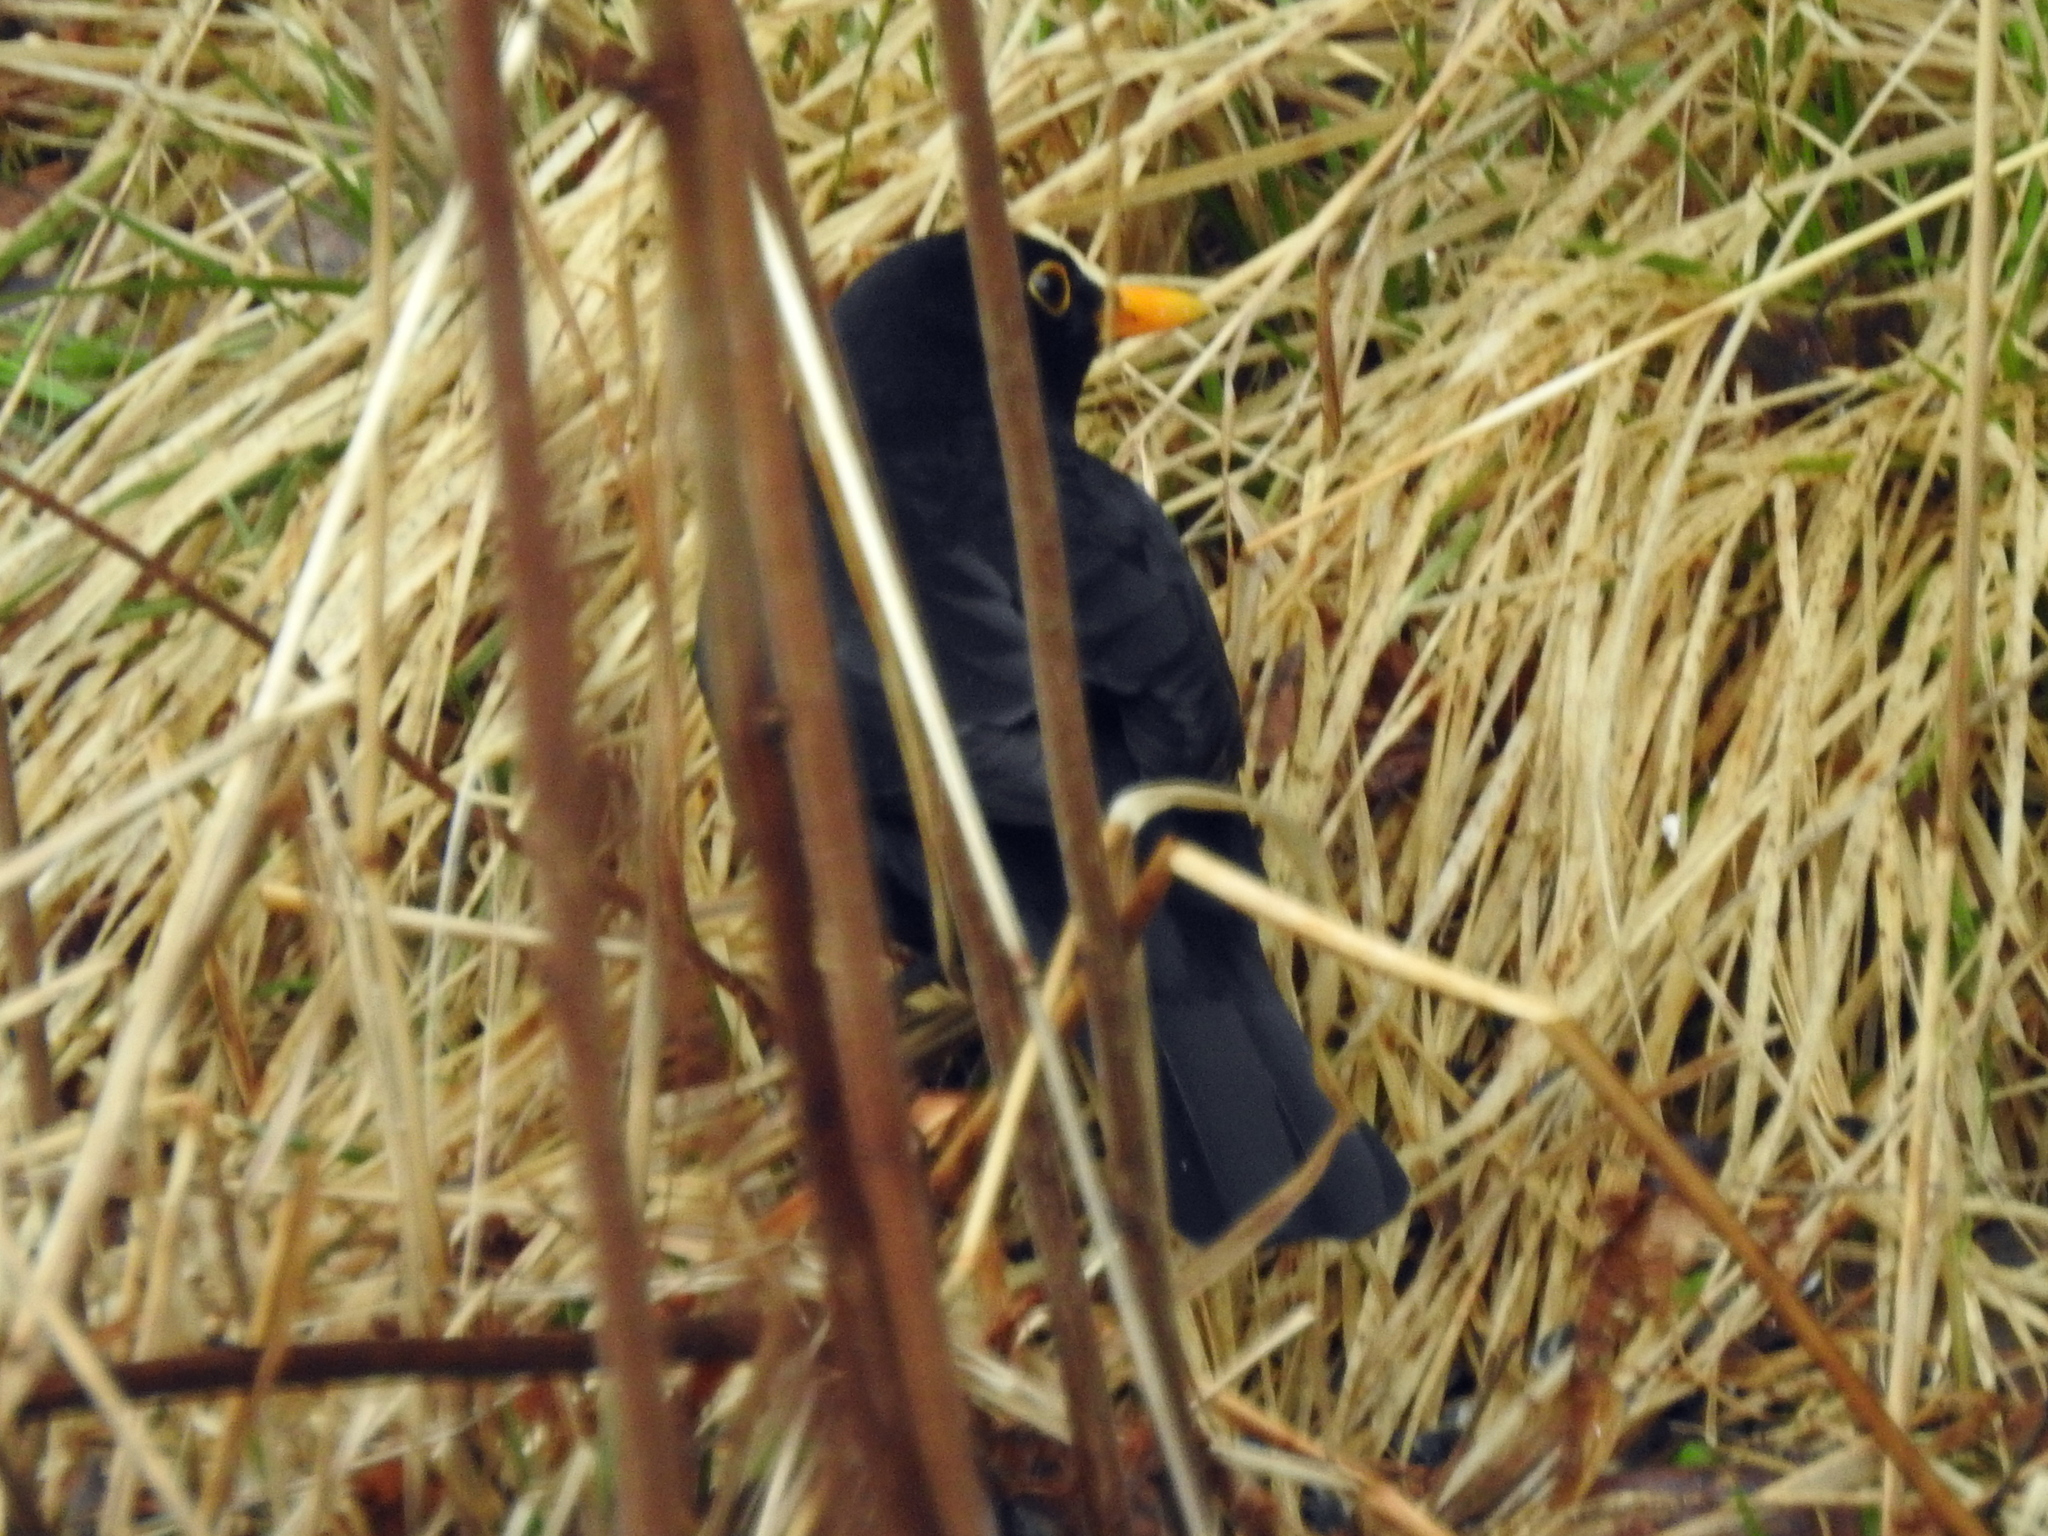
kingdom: Animalia
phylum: Chordata
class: Aves
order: Passeriformes
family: Turdidae
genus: Turdus
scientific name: Turdus merula
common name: Common blackbird
